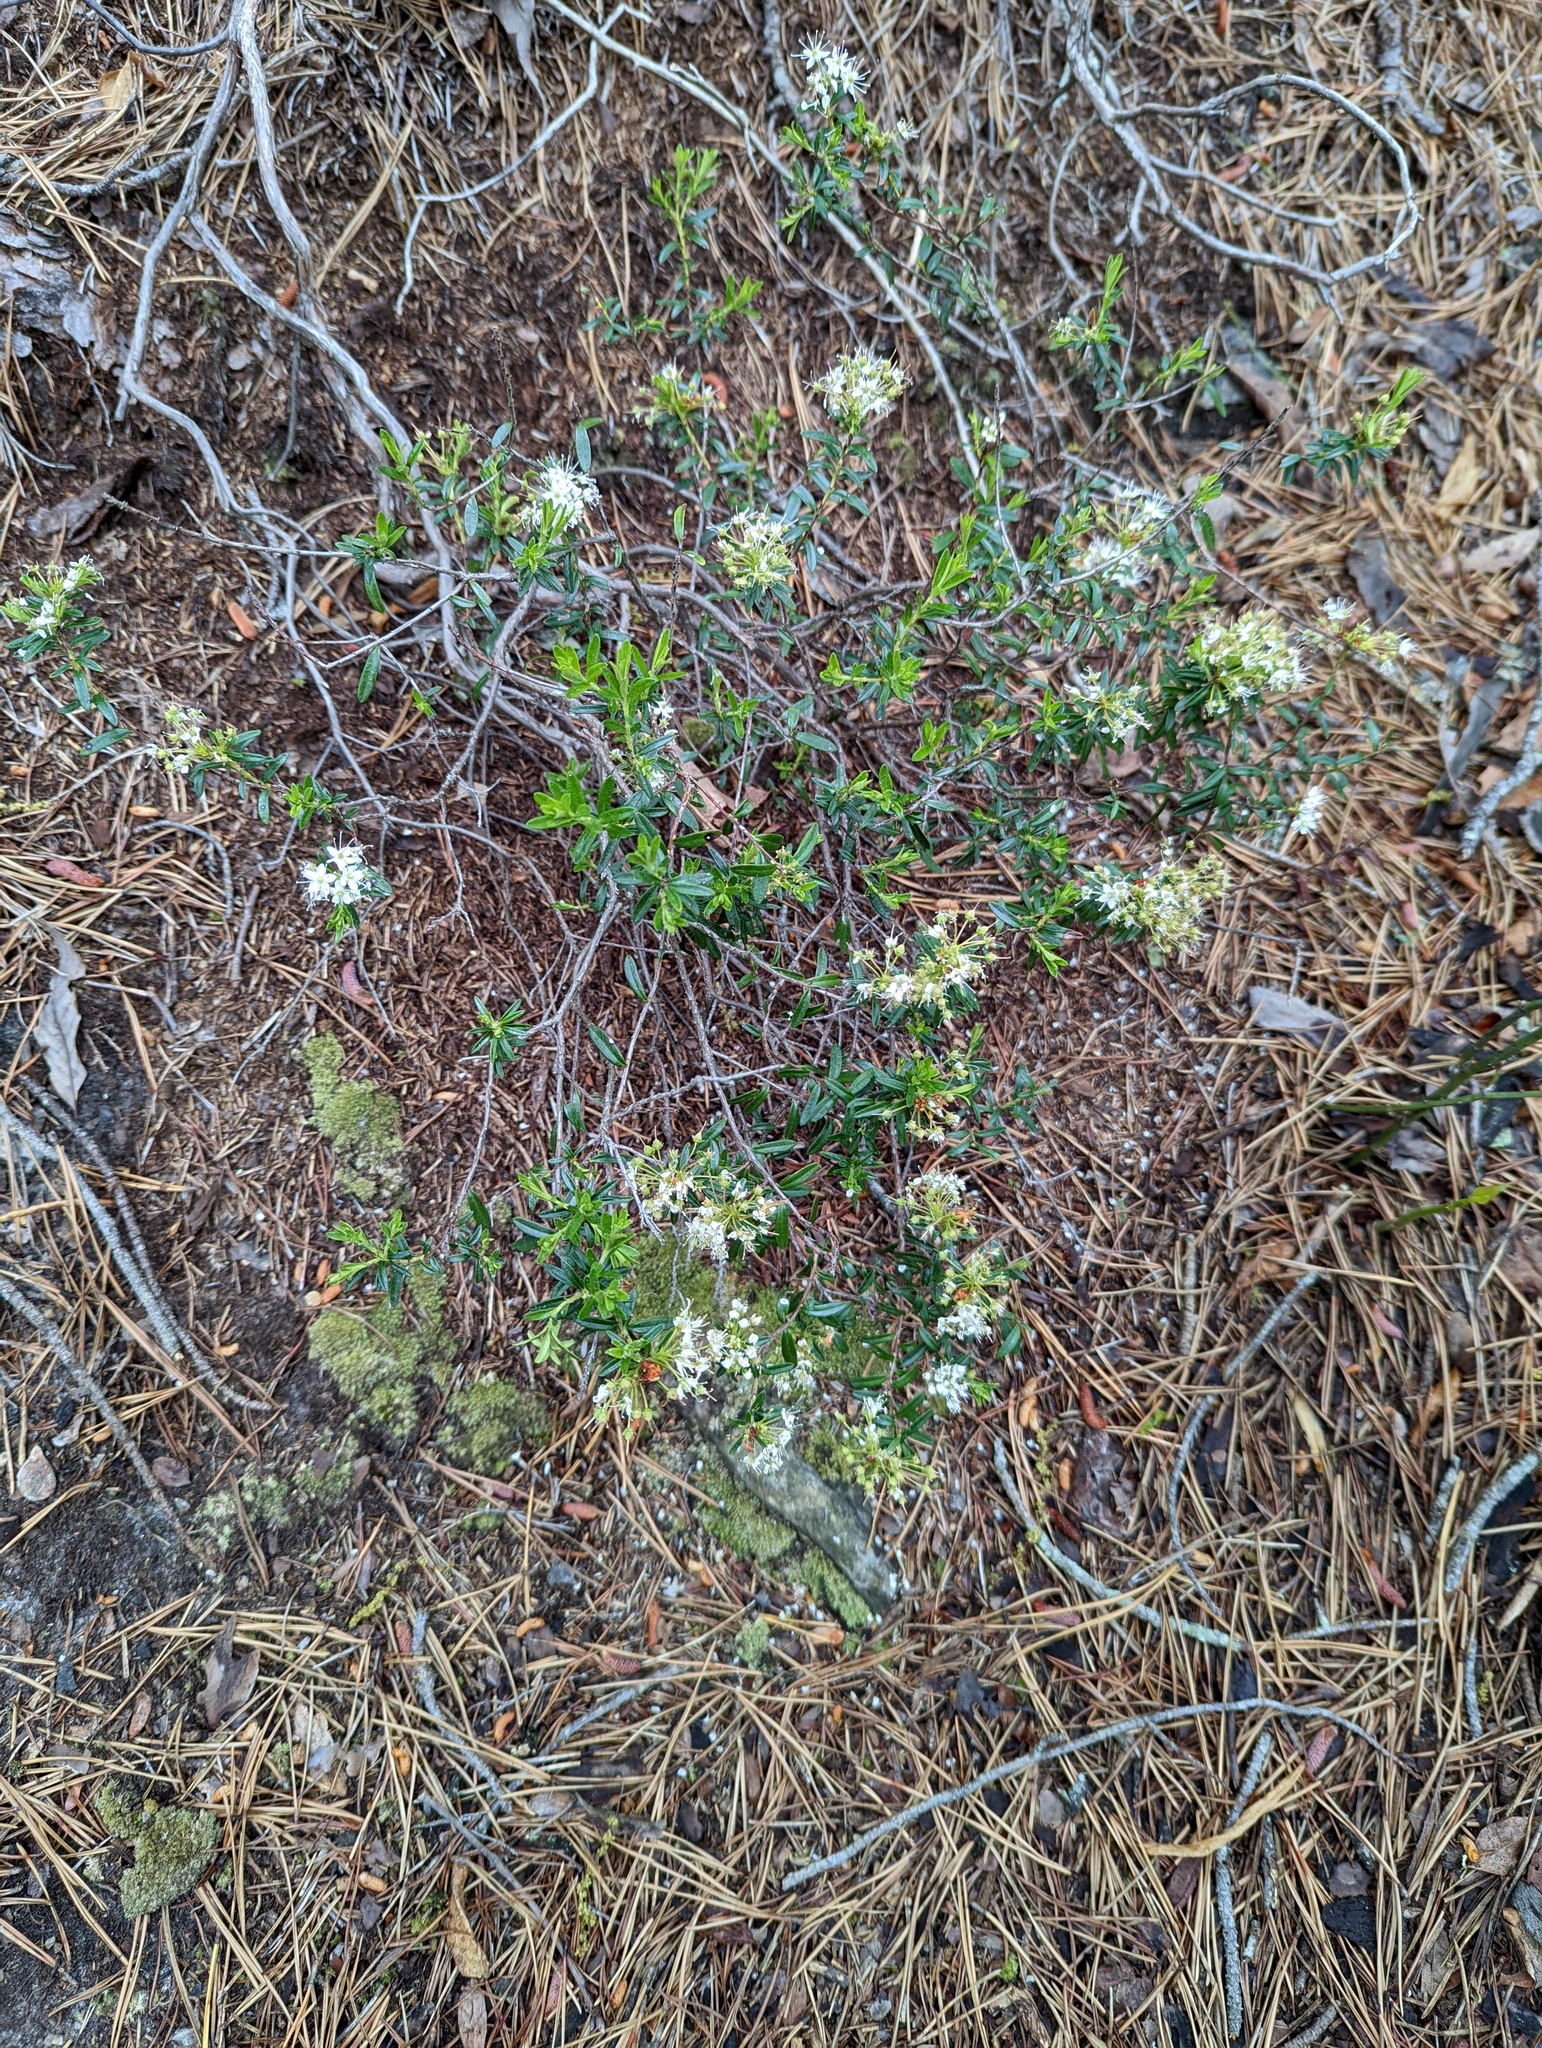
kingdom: Plantae
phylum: Tracheophyta
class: Magnoliopsida
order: Ericales
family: Ericaceae
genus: Kalmia
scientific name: Kalmia buxifolia
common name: Sandmyrtle
